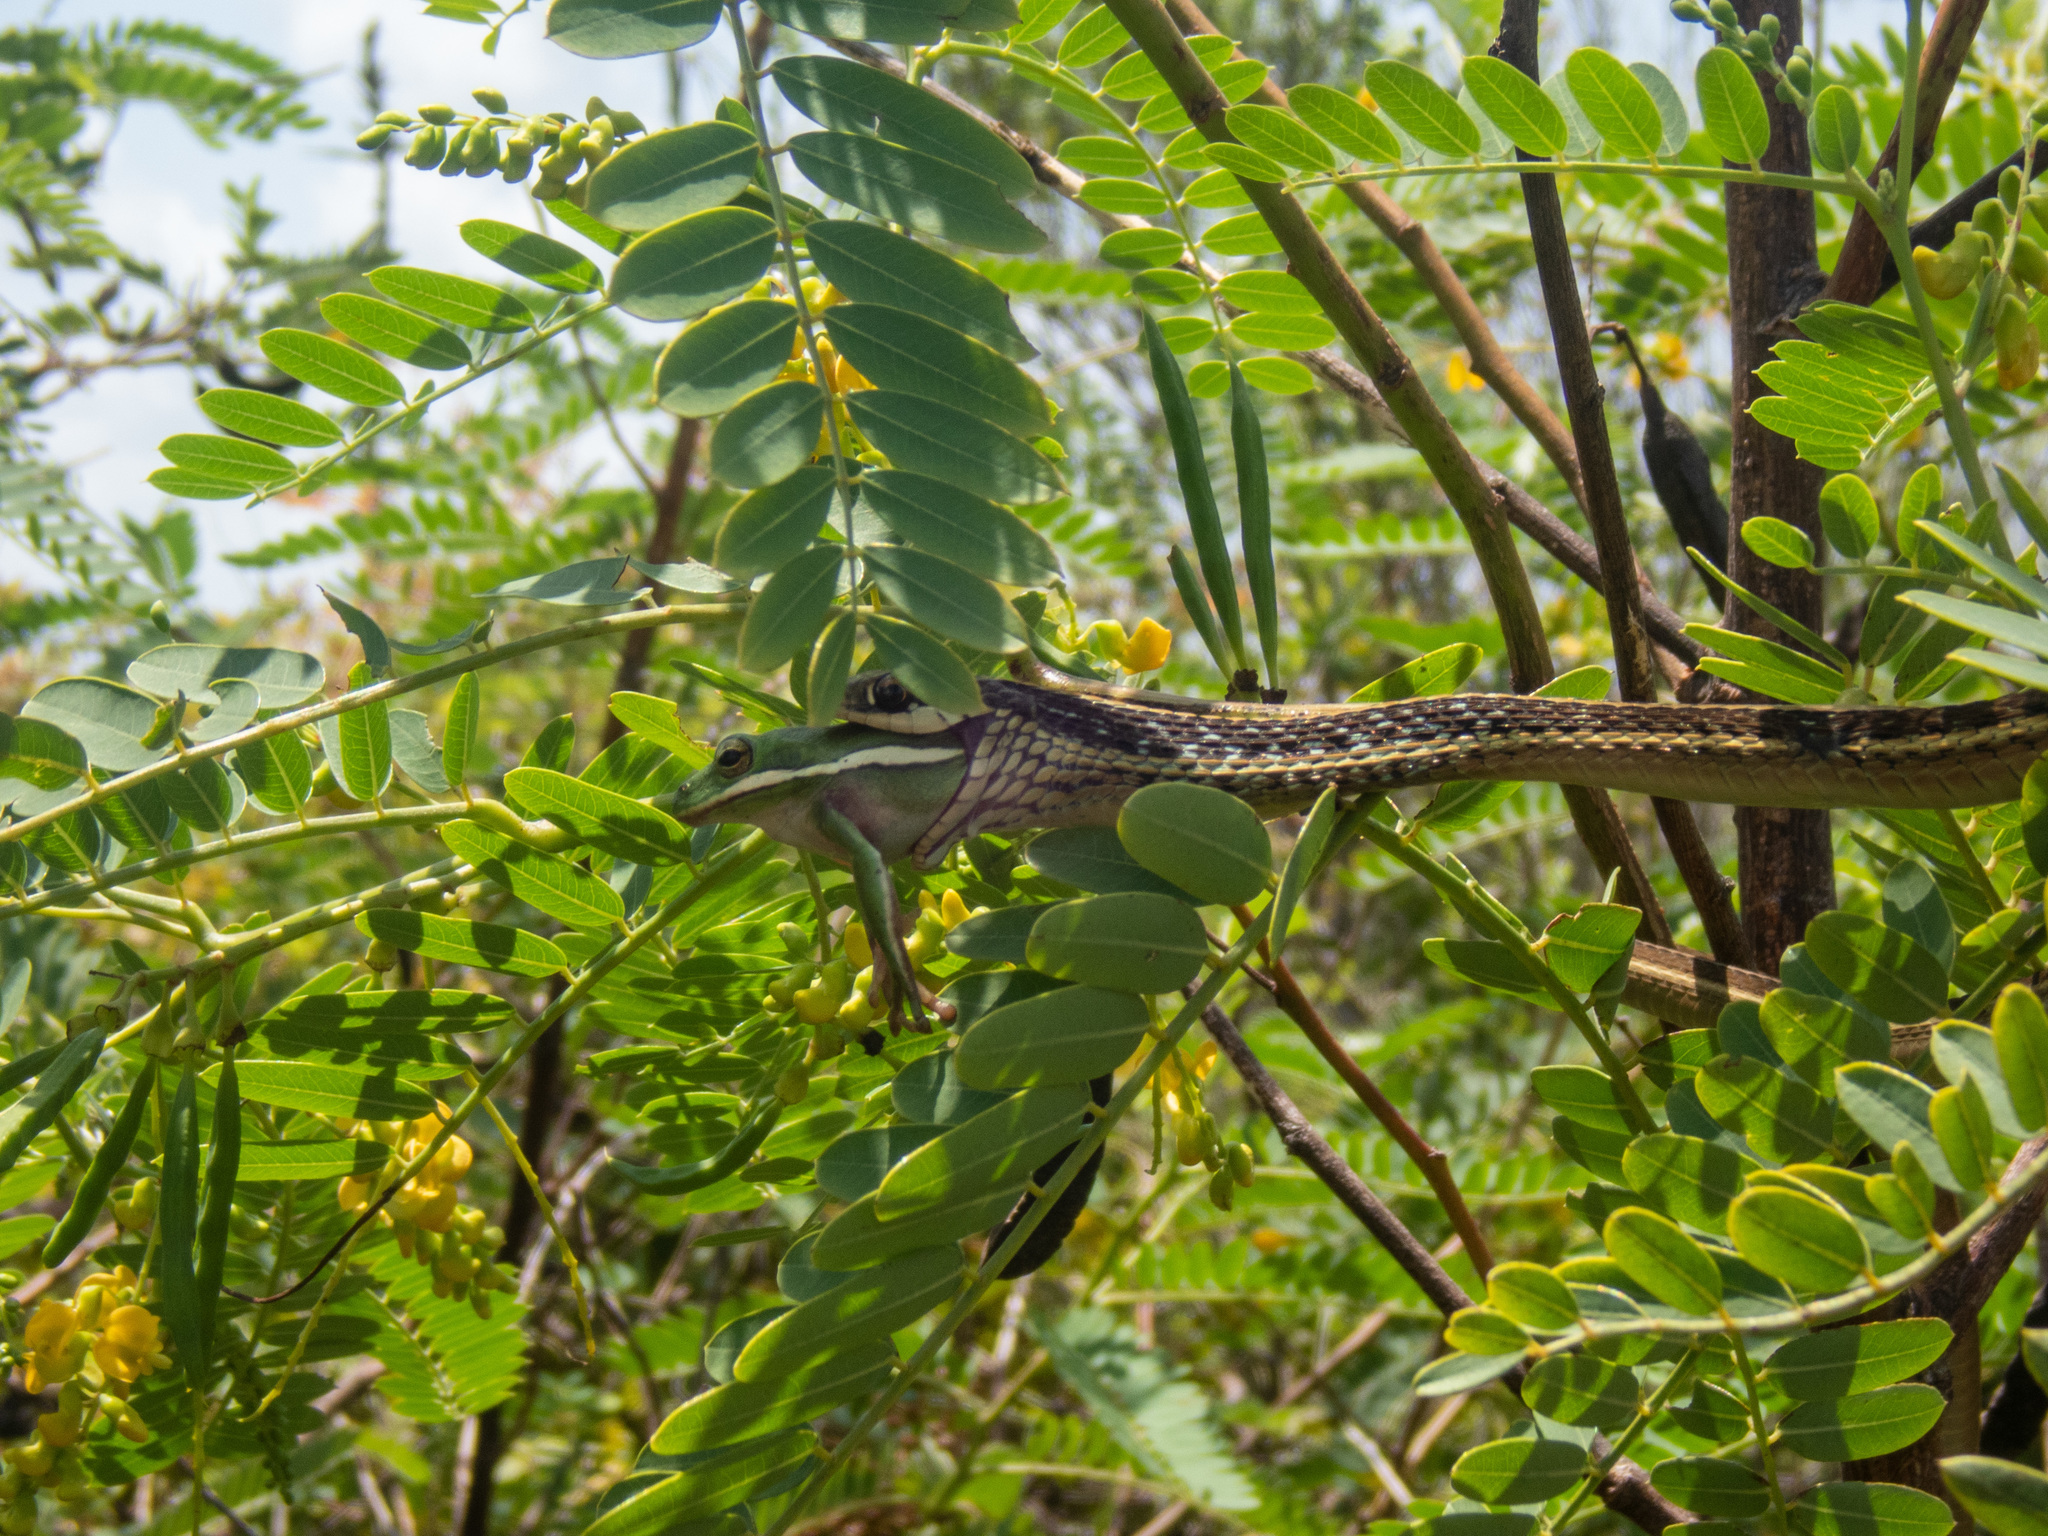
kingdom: Animalia
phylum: Chordata
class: Squamata
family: Colubridae
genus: Thamnophis
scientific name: Thamnophis saurita
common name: Eastern ribbonsnake
